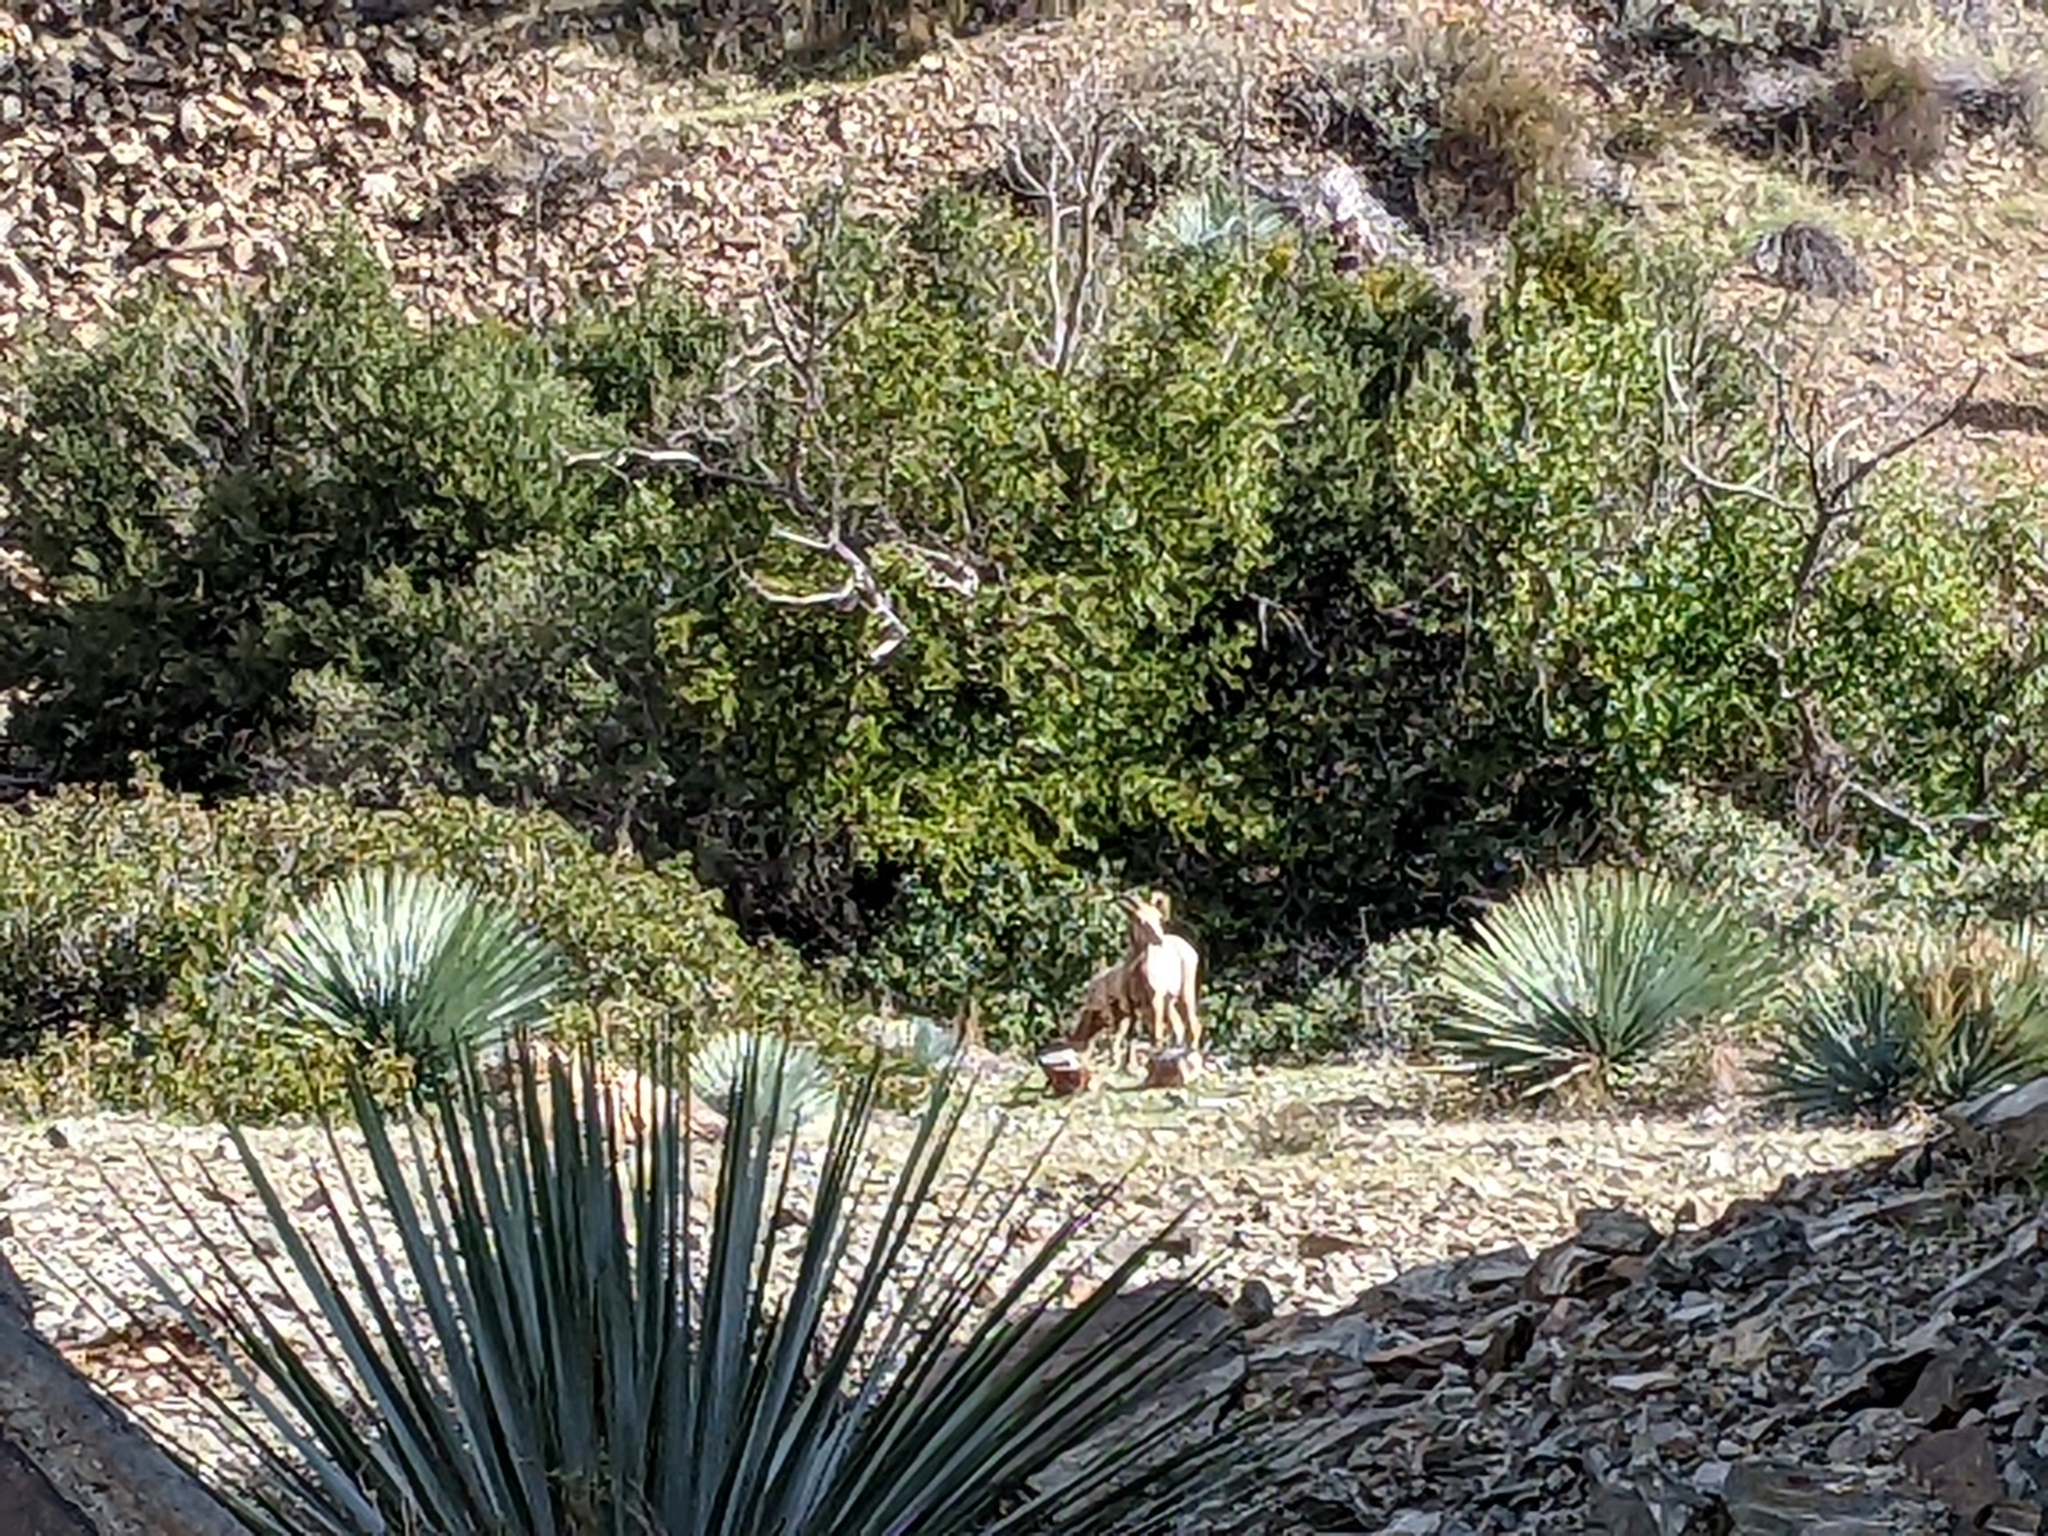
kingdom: Animalia
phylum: Chordata
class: Mammalia
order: Artiodactyla
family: Bovidae
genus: Ovis
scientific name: Ovis canadensis
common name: Bighorn sheep
